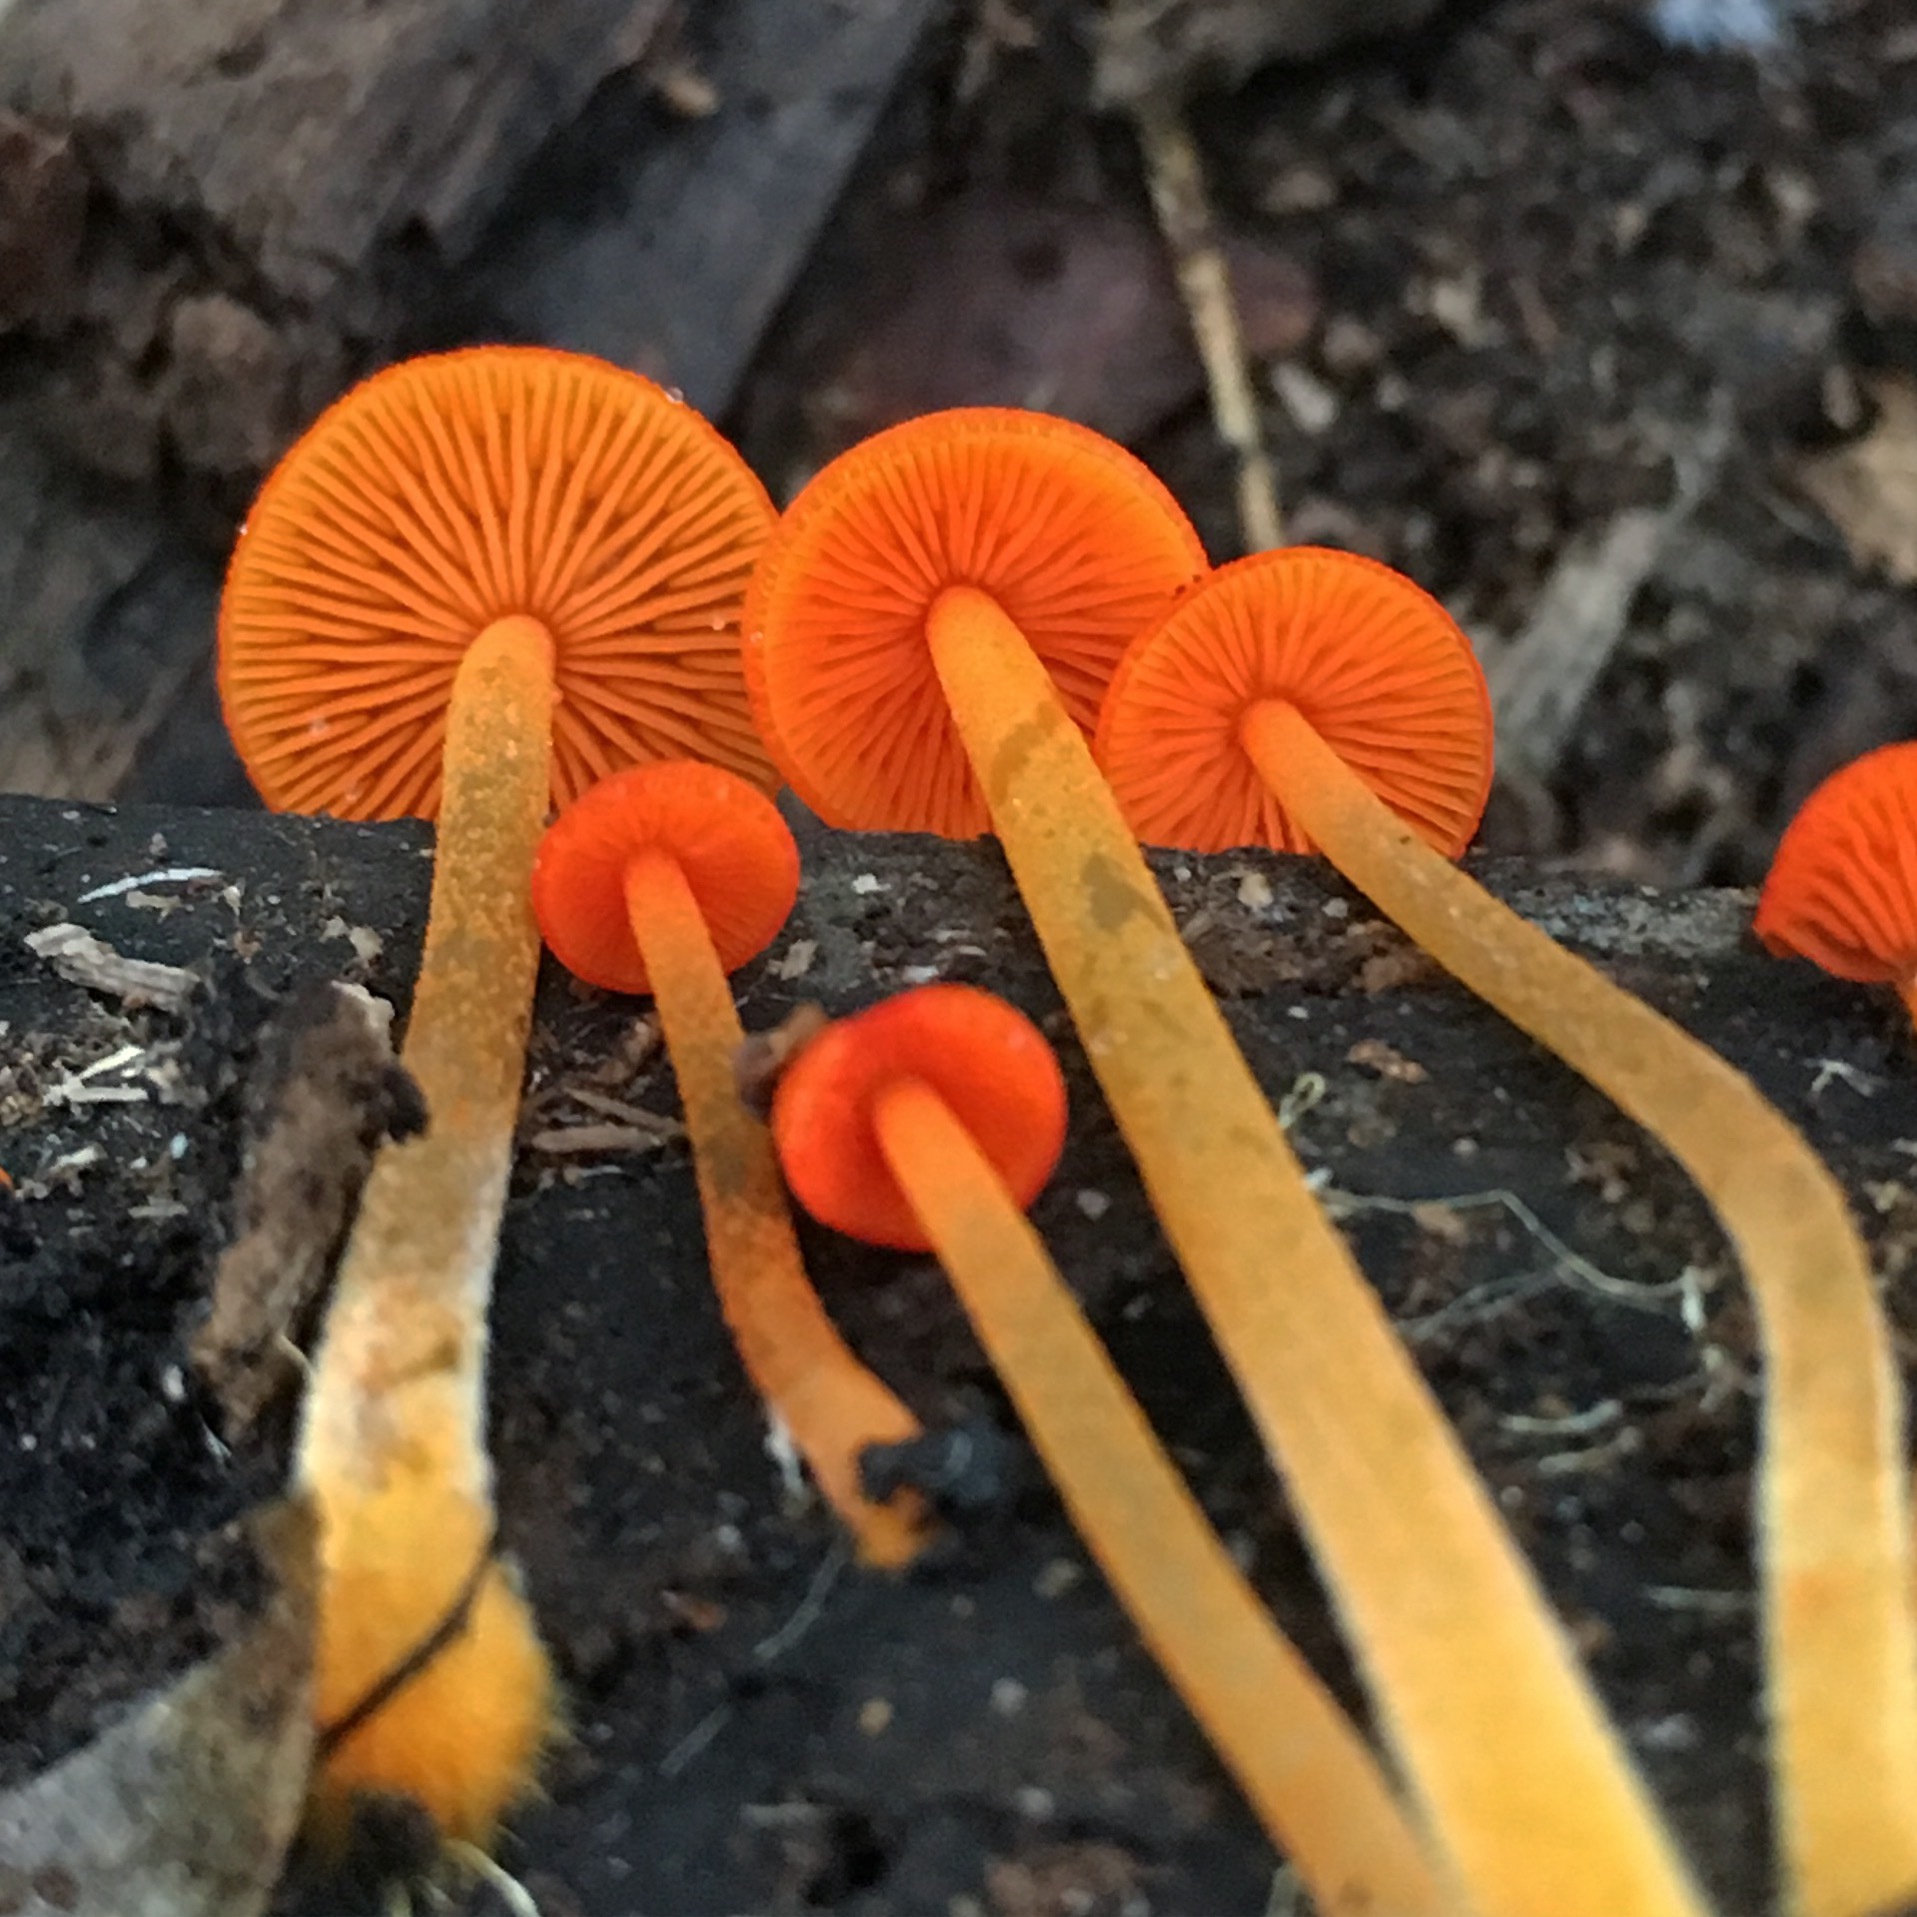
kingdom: Fungi
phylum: Basidiomycota
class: Agaricomycetes
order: Agaricales
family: Mycenaceae
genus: Mycena
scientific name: Mycena leaiana
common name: Orange mycena
